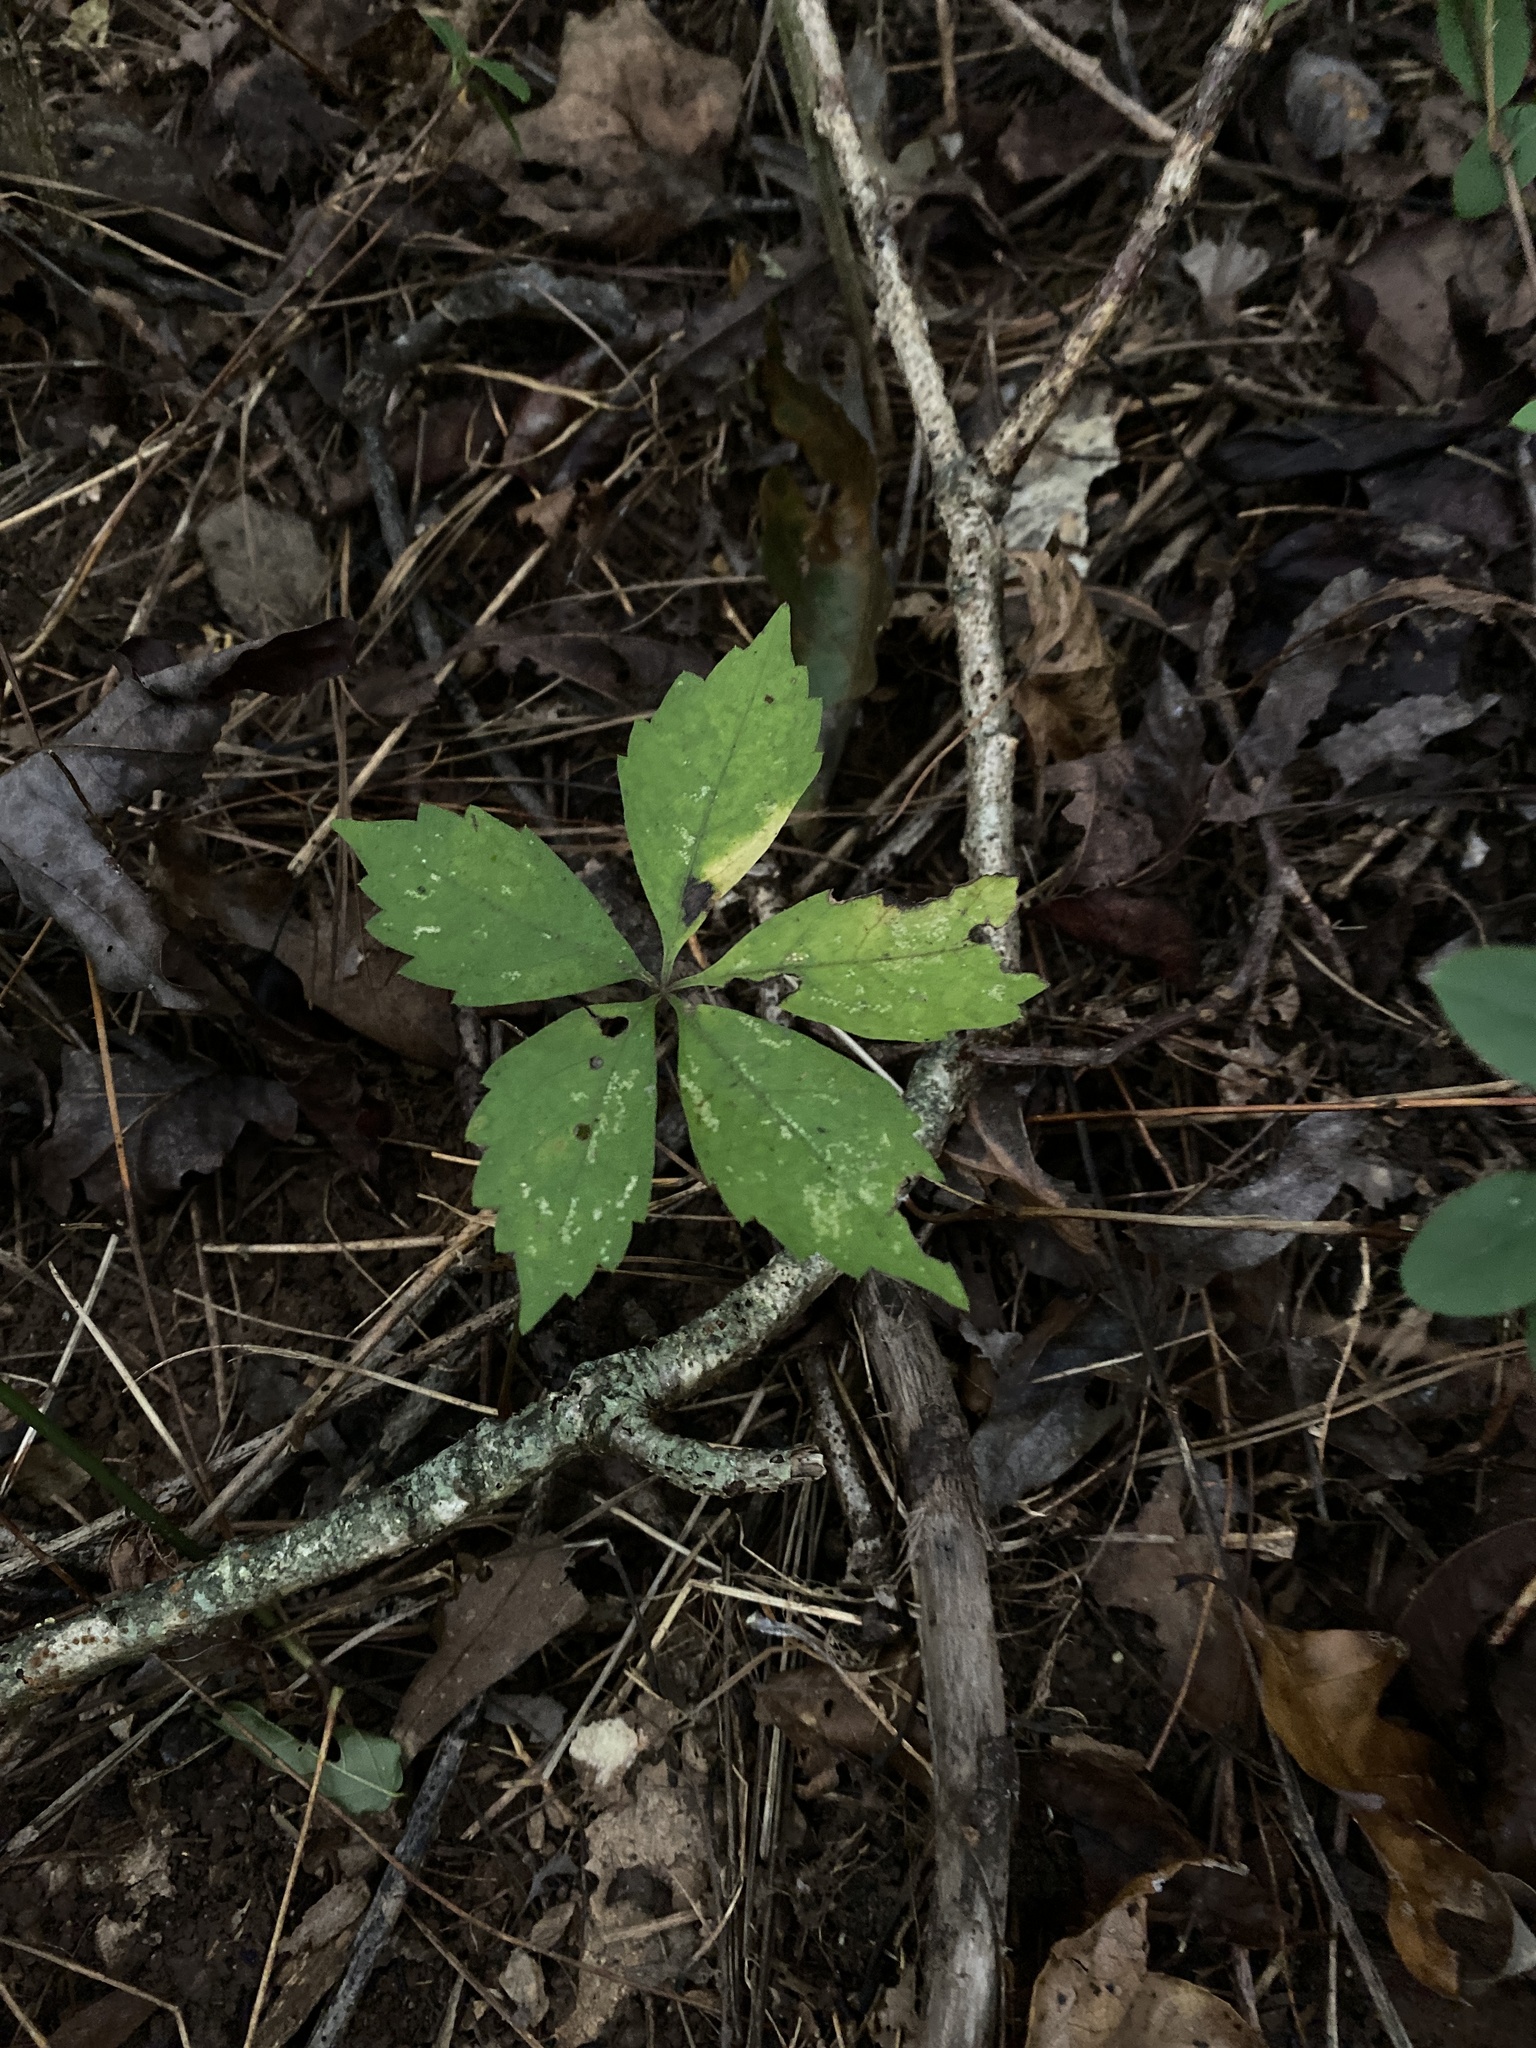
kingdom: Plantae
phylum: Tracheophyta
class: Magnoliopsida
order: Vitales
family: Vitaceae
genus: Parthenocissus
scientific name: Parthenocissus quinquefolia
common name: Virginia-creeper
